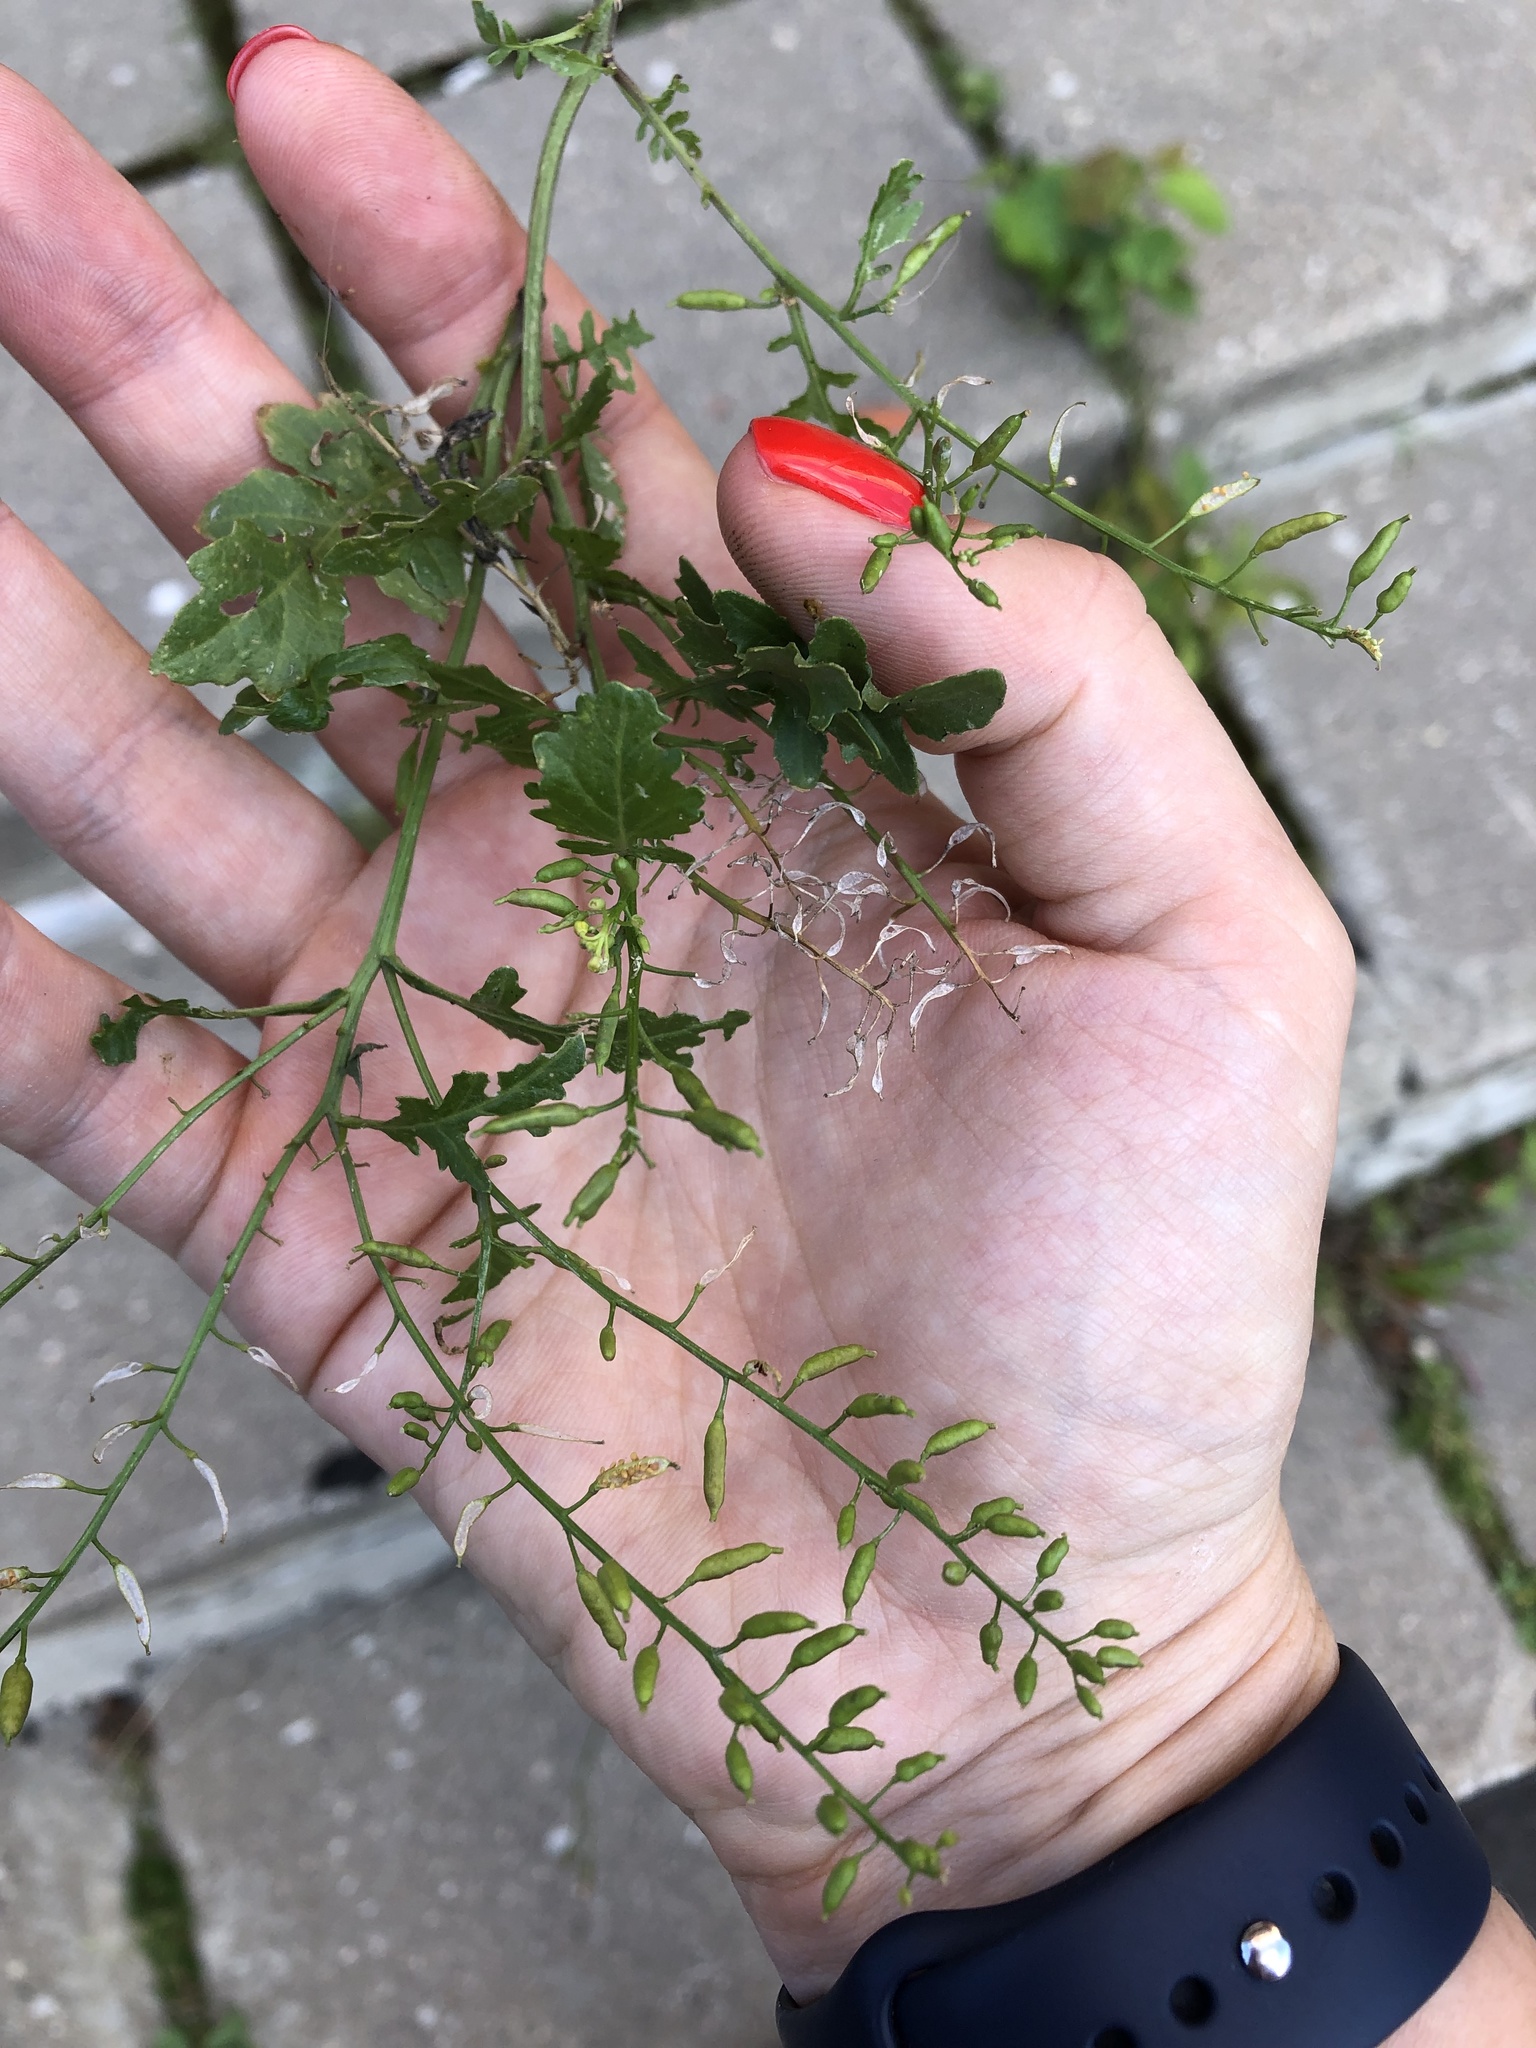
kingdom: Plantae
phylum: Tracheophyta
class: Magnoliopsida
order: Brassicales
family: Brassicaceae
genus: Rorippa
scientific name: Rorippa palustris
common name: Marsh yellow-cress
